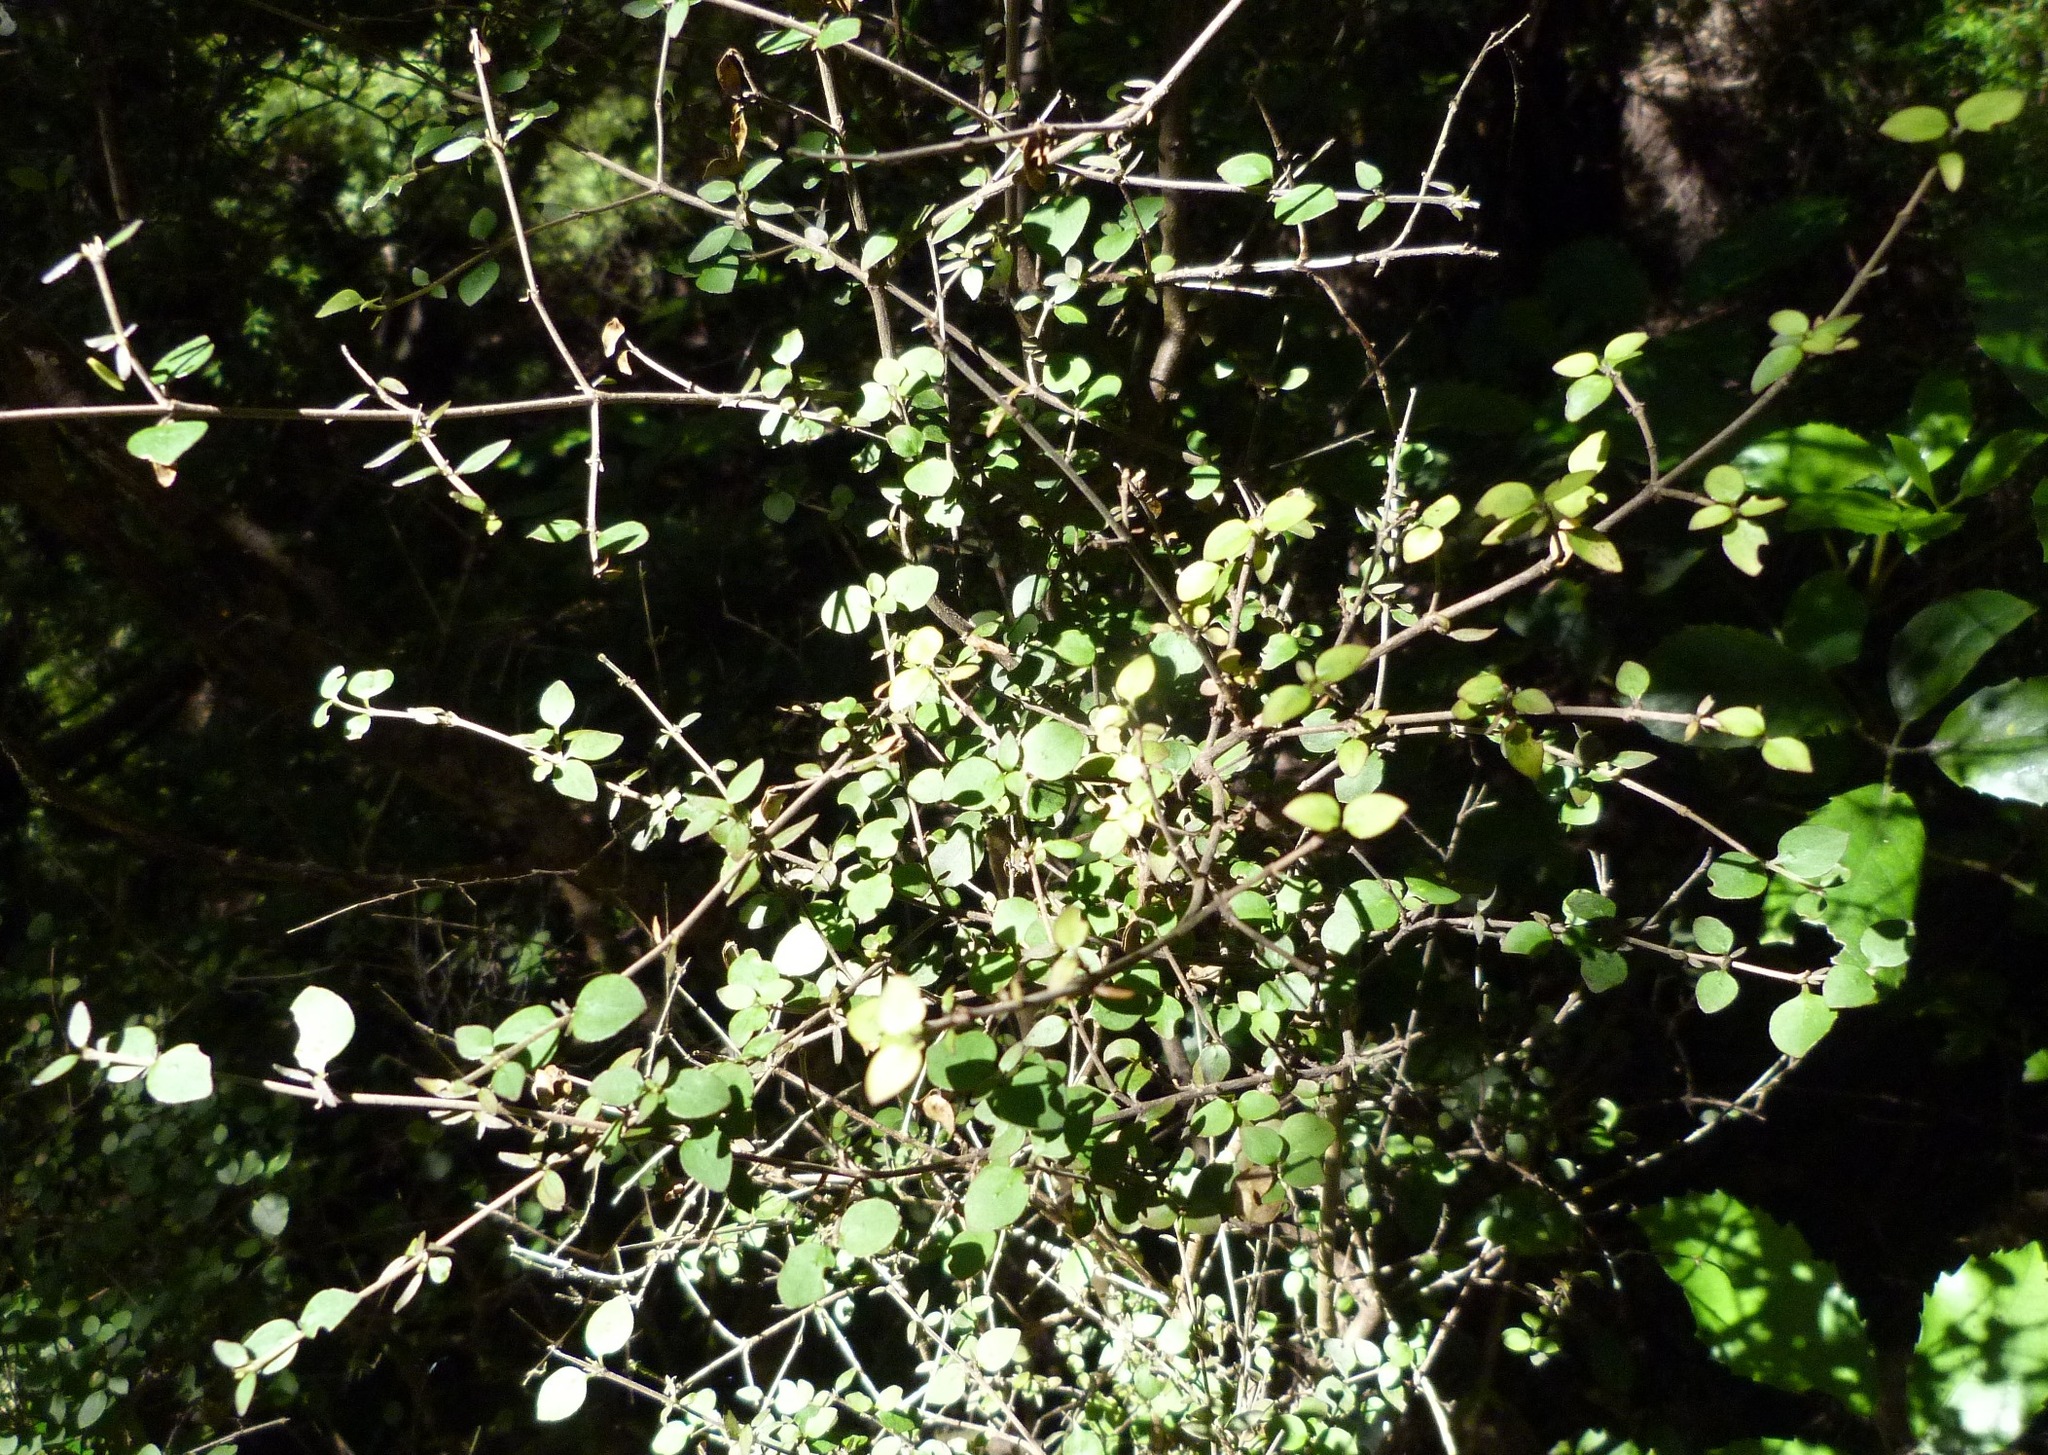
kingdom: Plantae
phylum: Tracheophyta
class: Magnoliopsida
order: Gentianales
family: Rubiaceae
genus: Coprosma
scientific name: Coprosma rhamnoides
